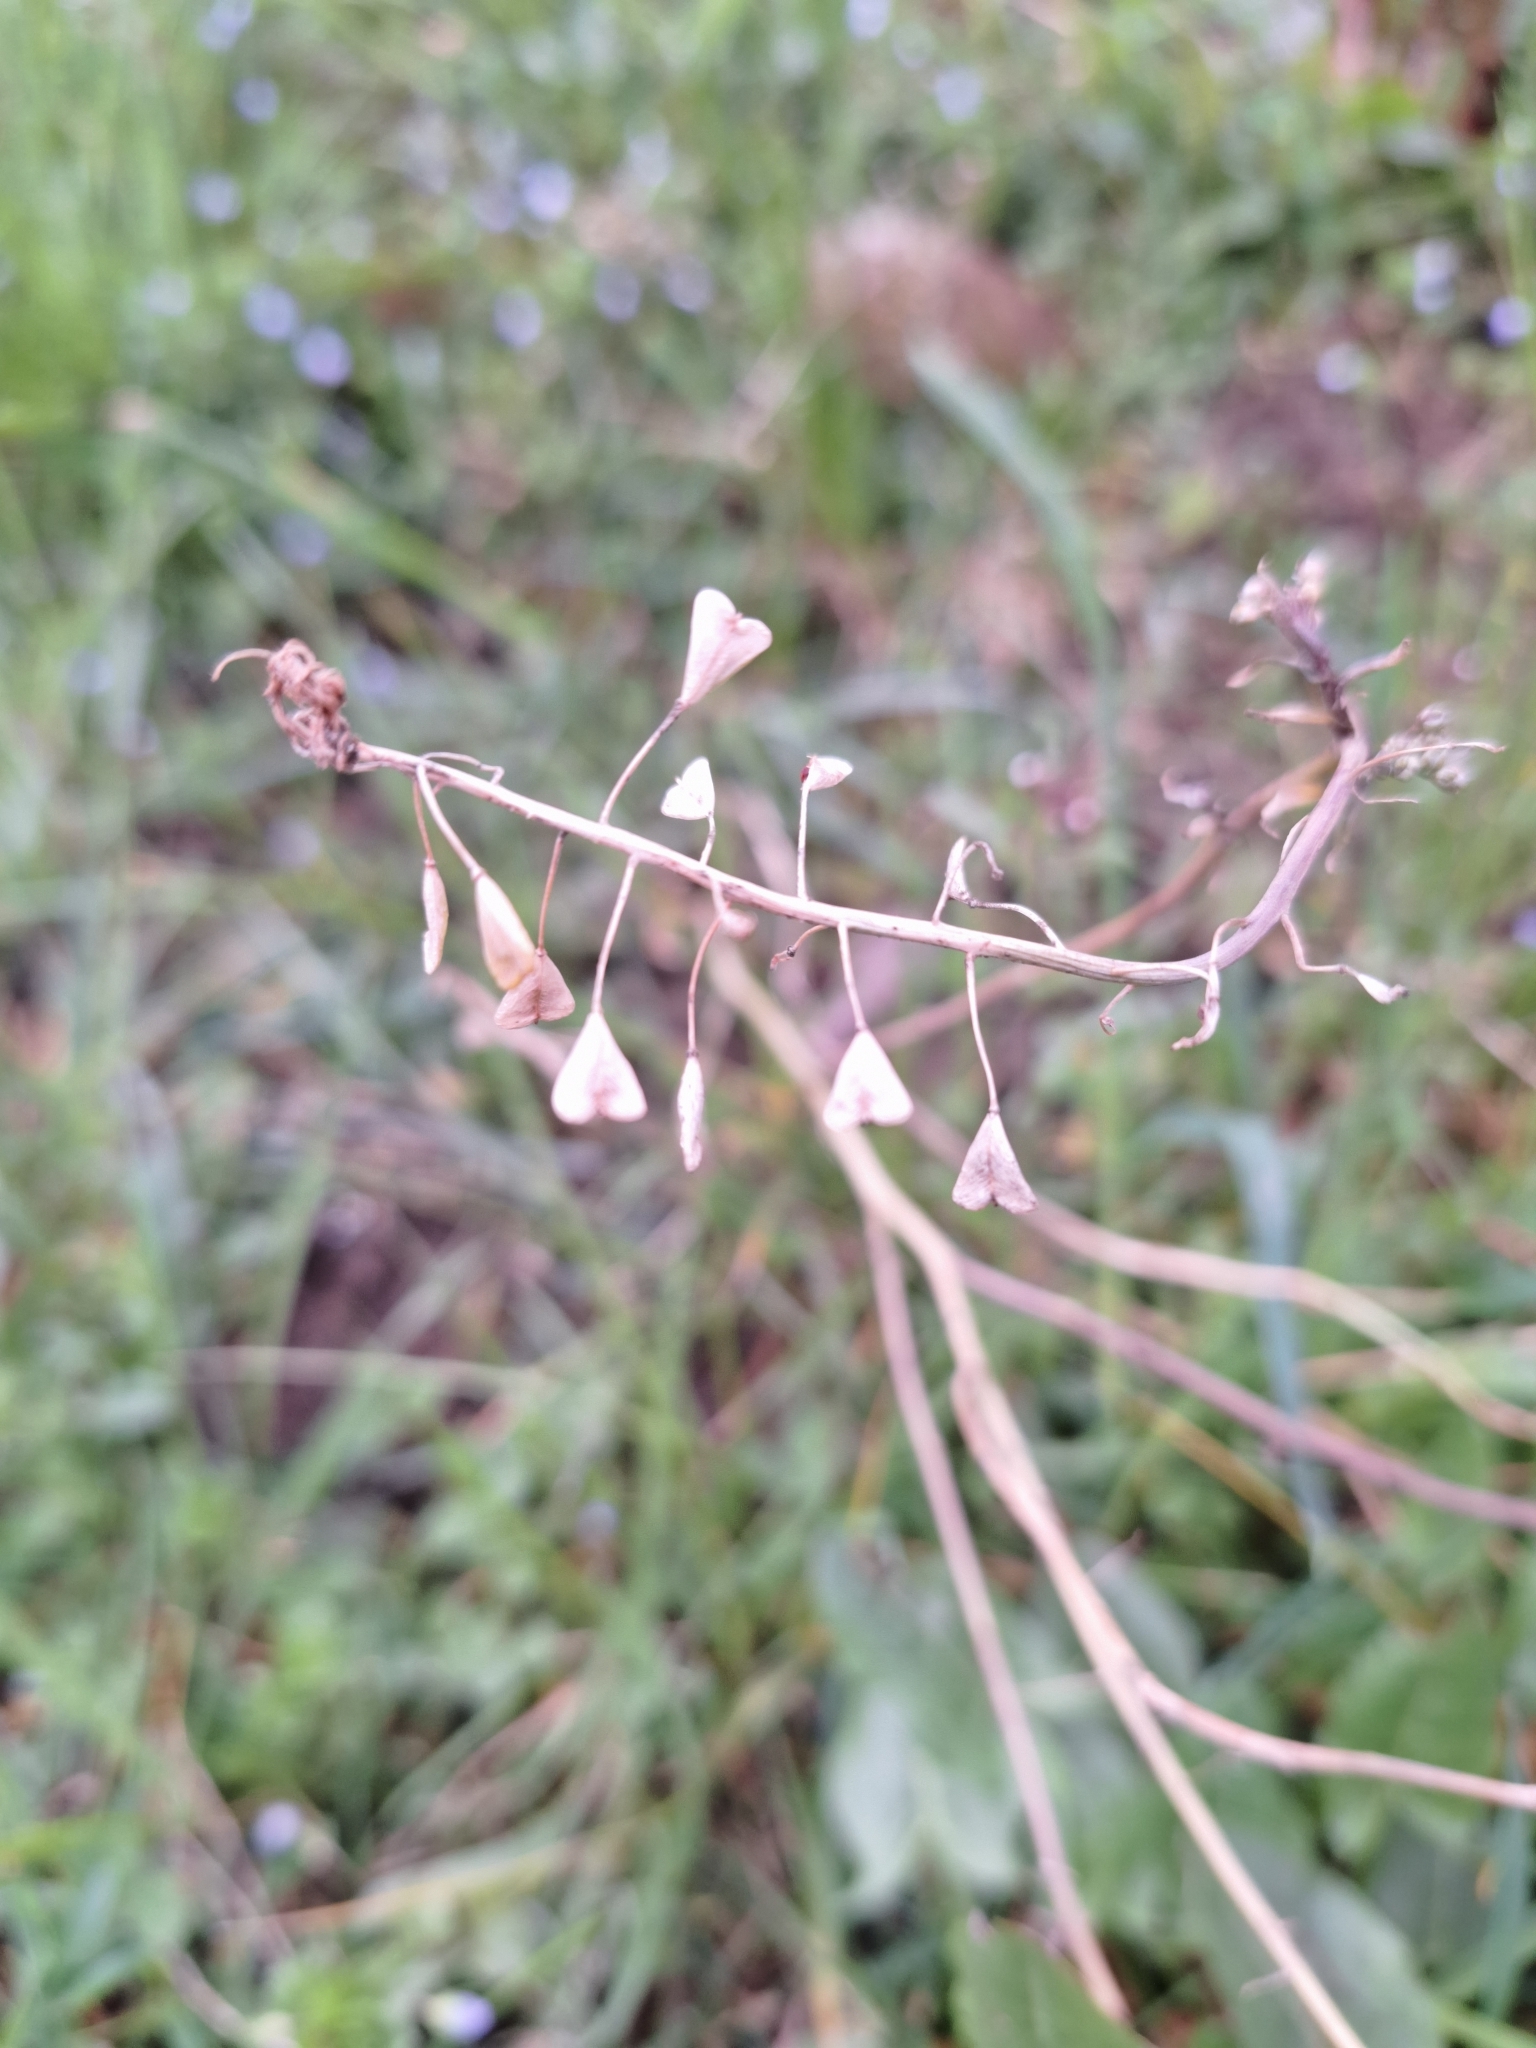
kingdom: Plantae
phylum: Tracheophyta
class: Magnoliopsida
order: Brassicales
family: Brassicaceae
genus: Capsella
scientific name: Capsella bursa-pastoris
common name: Shepherd's purse
